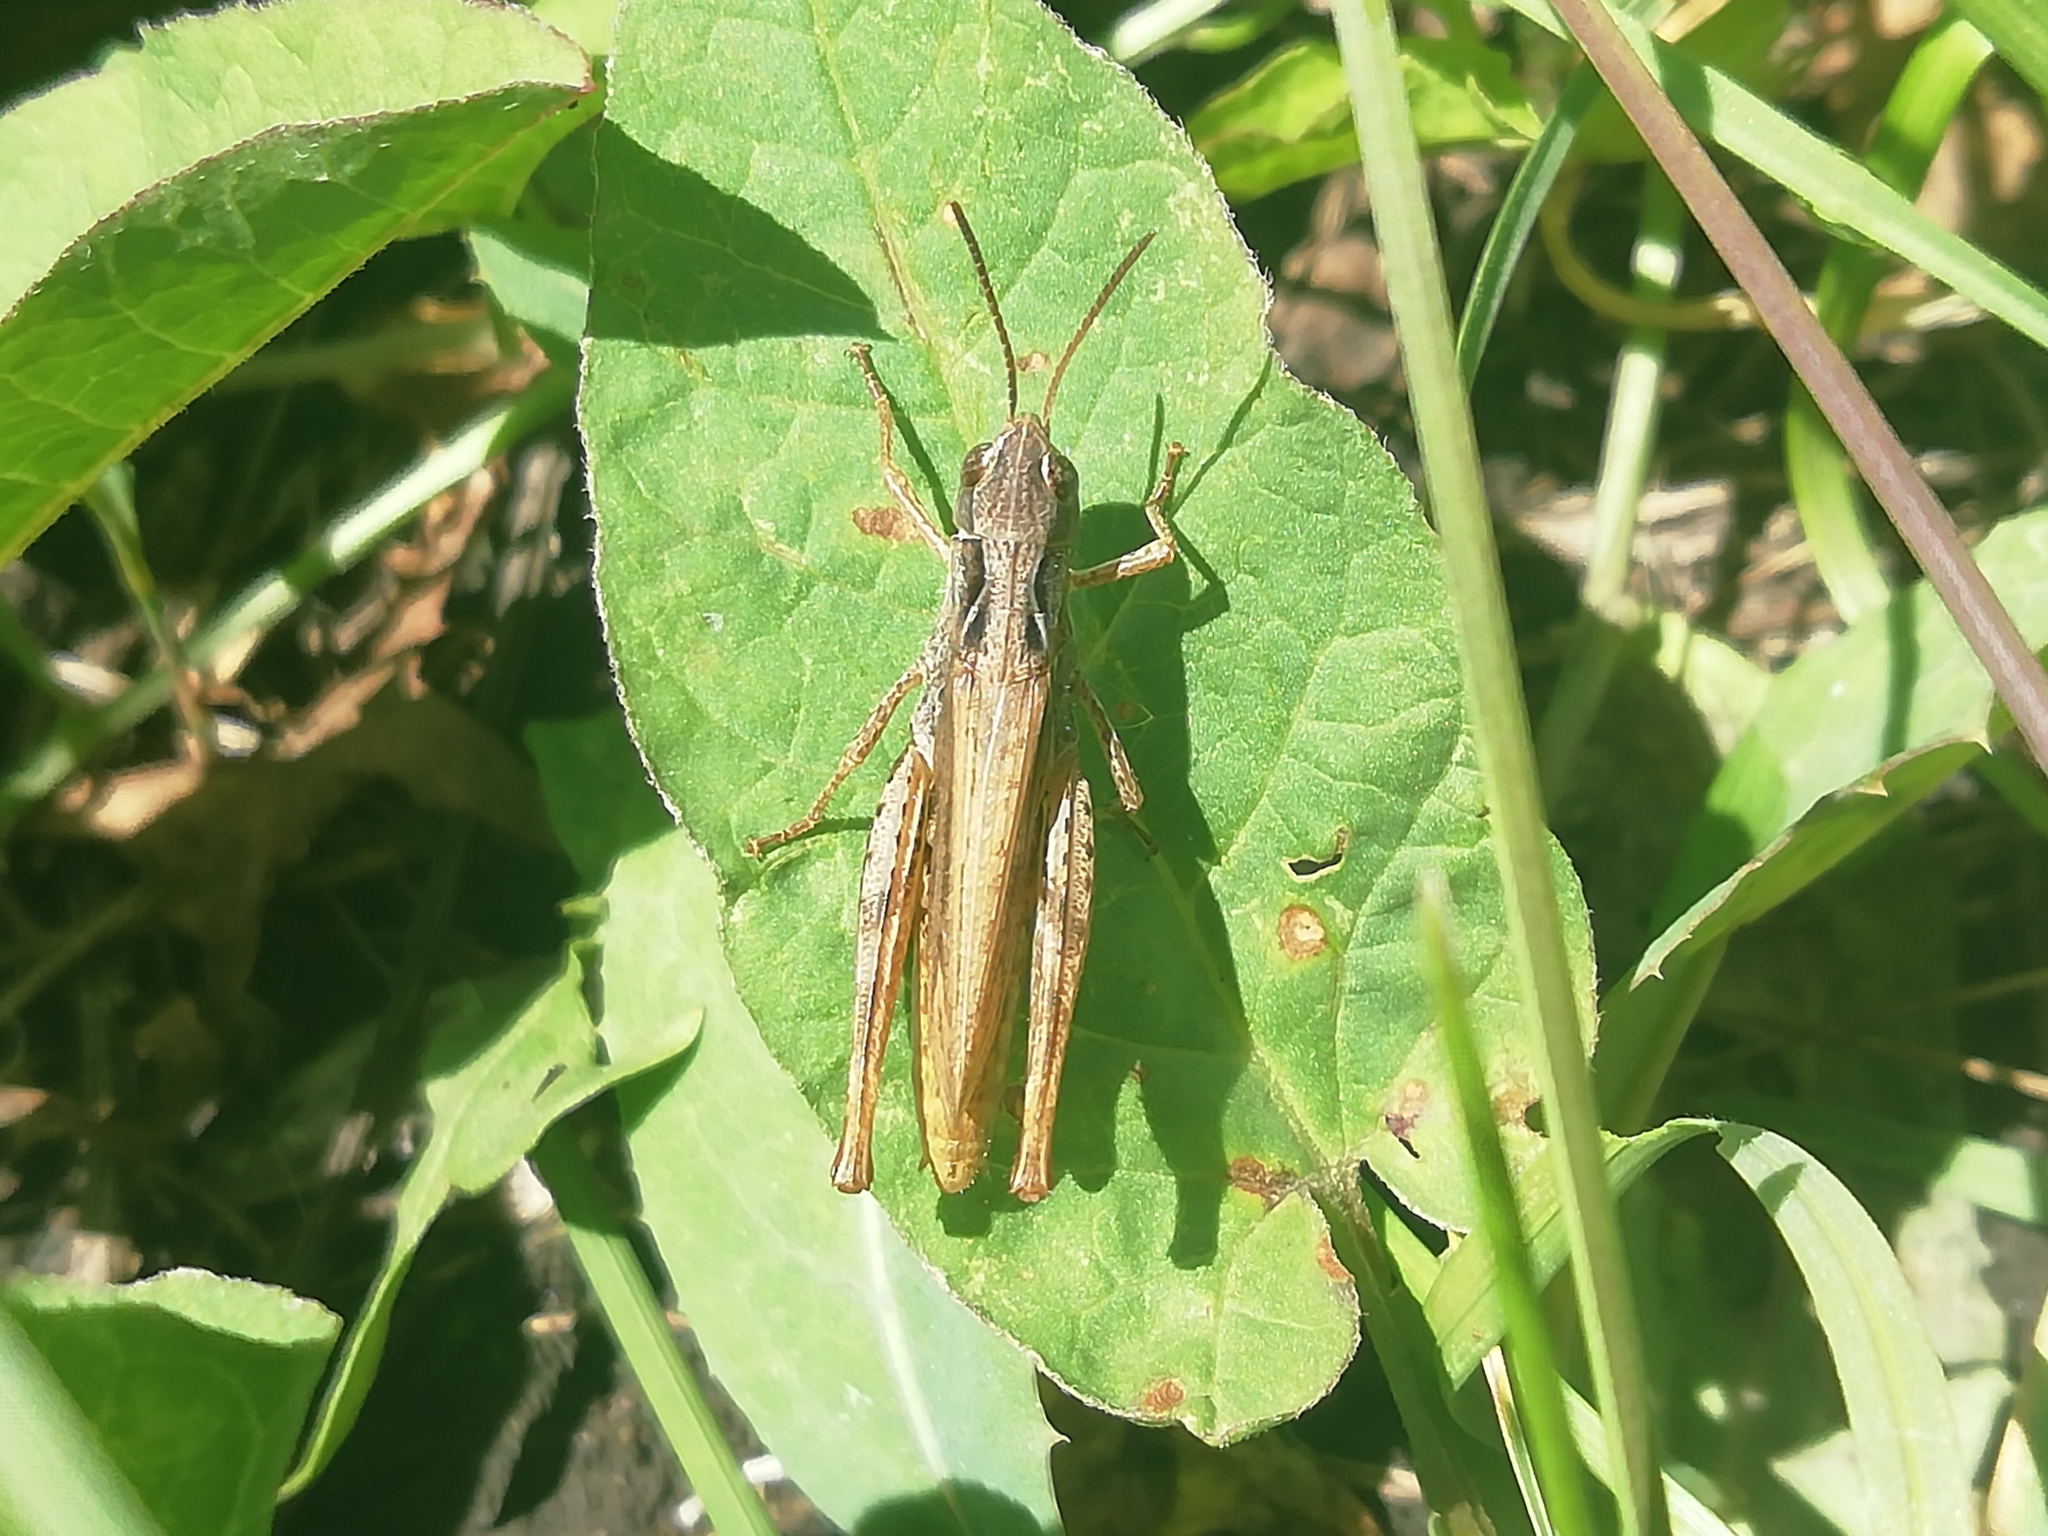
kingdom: Animalia
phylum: Arthropoda
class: Insecta
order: Orthoptera
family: Acrididae
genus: Chorthippus
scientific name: Chorthippus apricarius
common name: Upland field grasshopper
